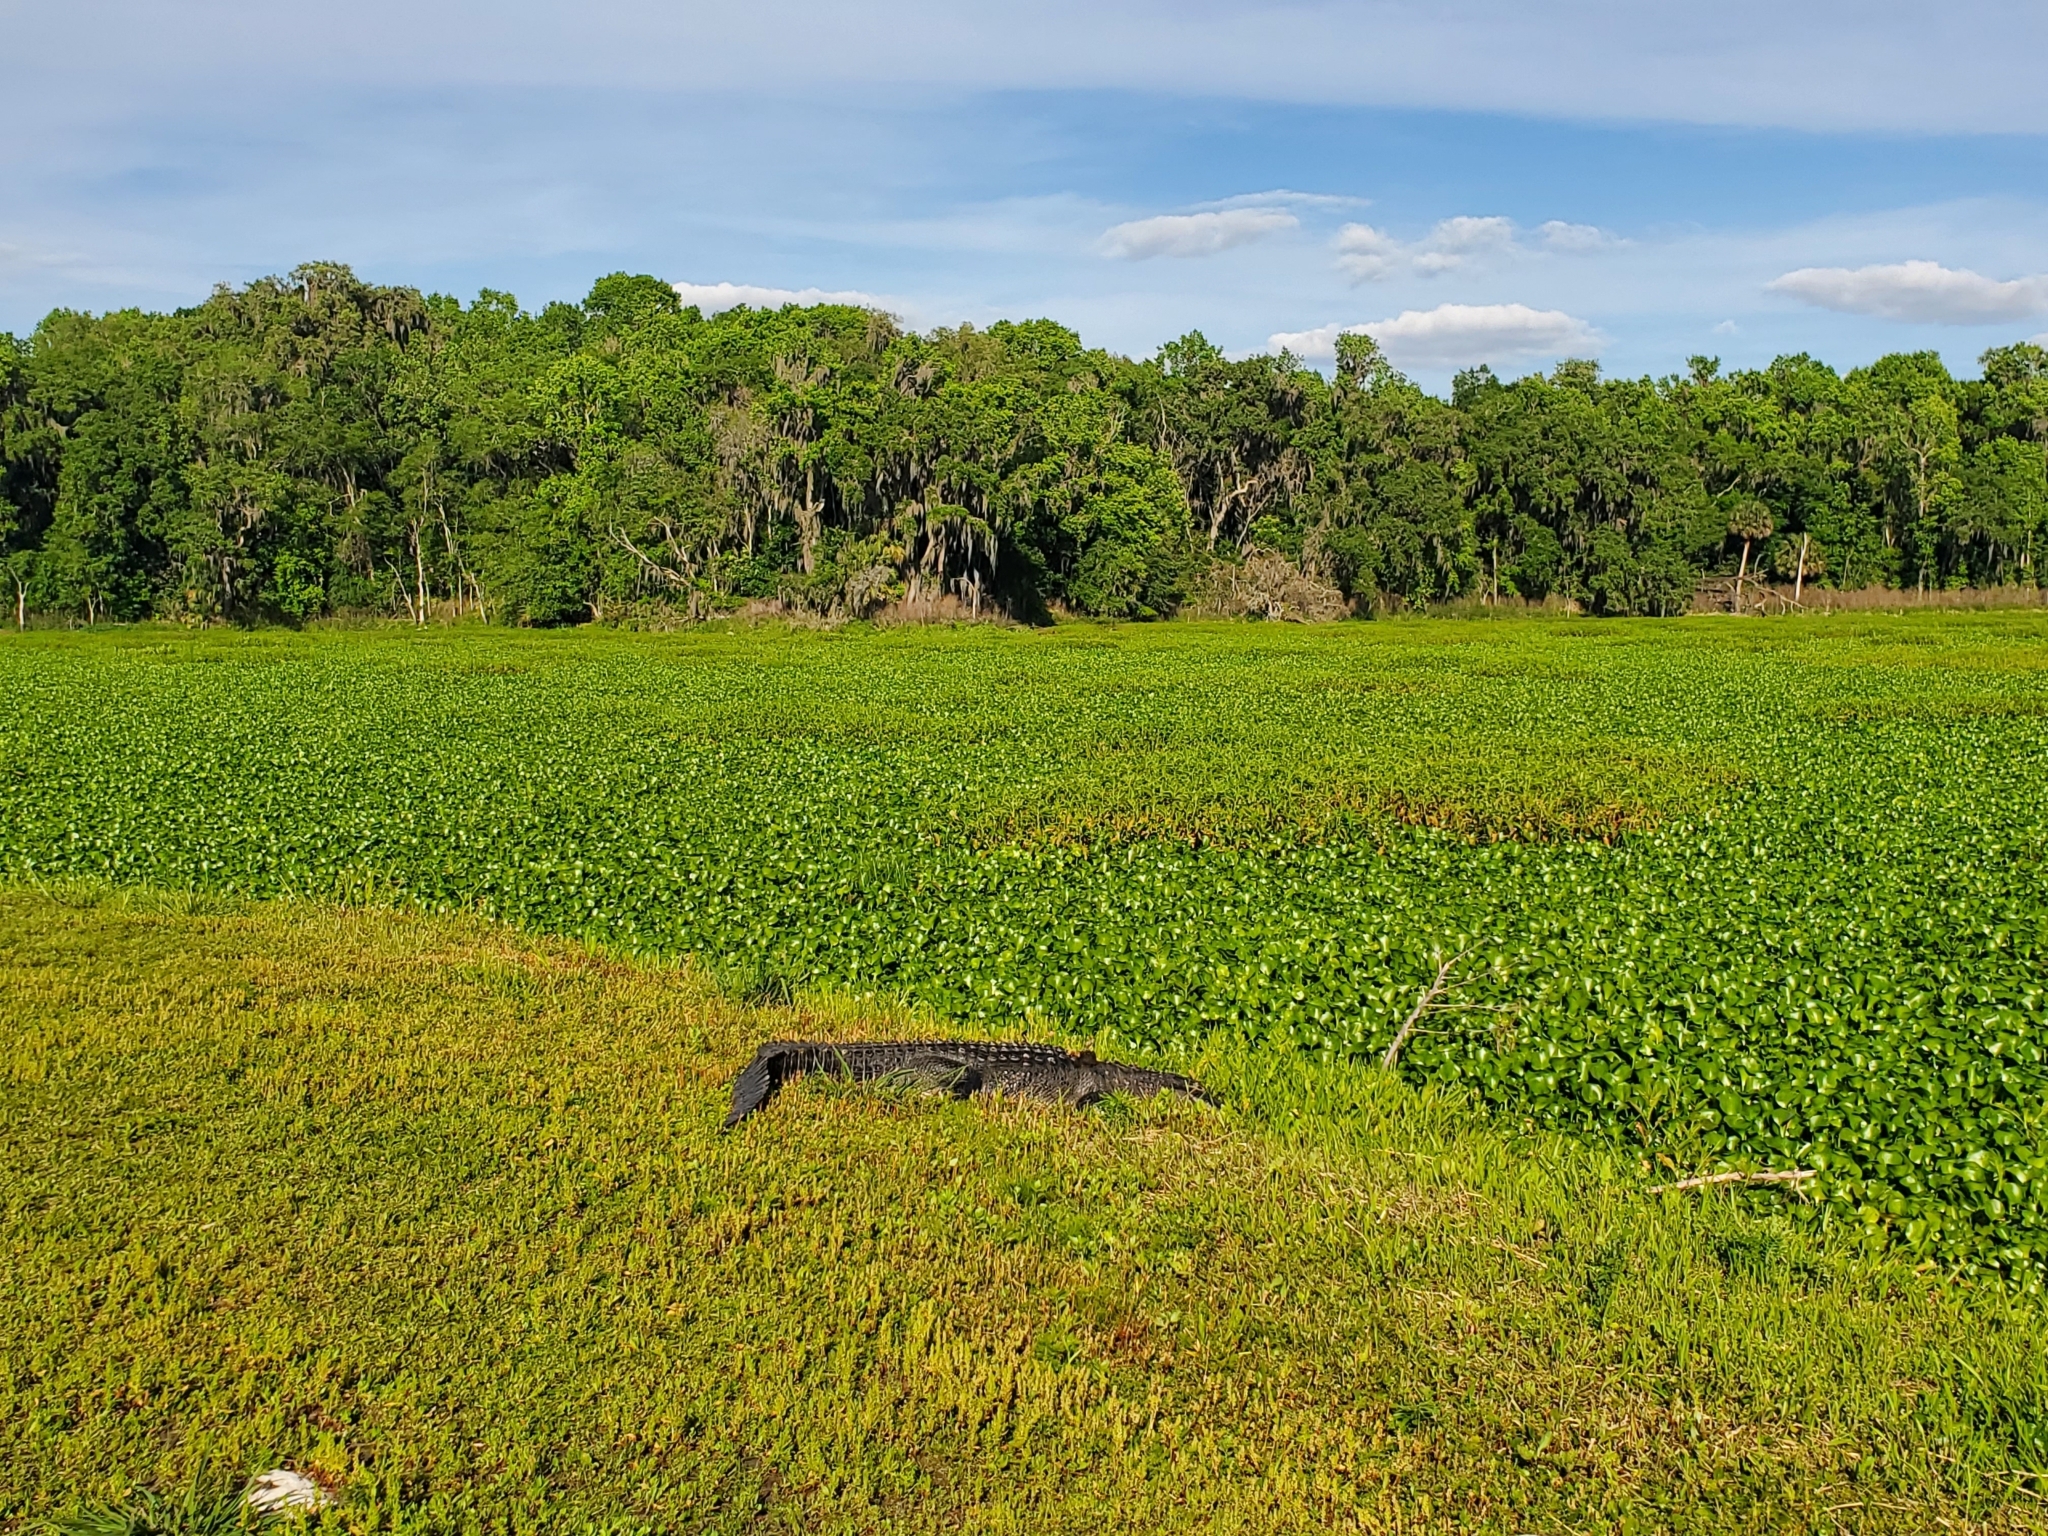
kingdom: Animalia
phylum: Chordata
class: Crocodylia
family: Alligatoridae
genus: Alligator
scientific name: Alligator mississippiensis
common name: American alligator
